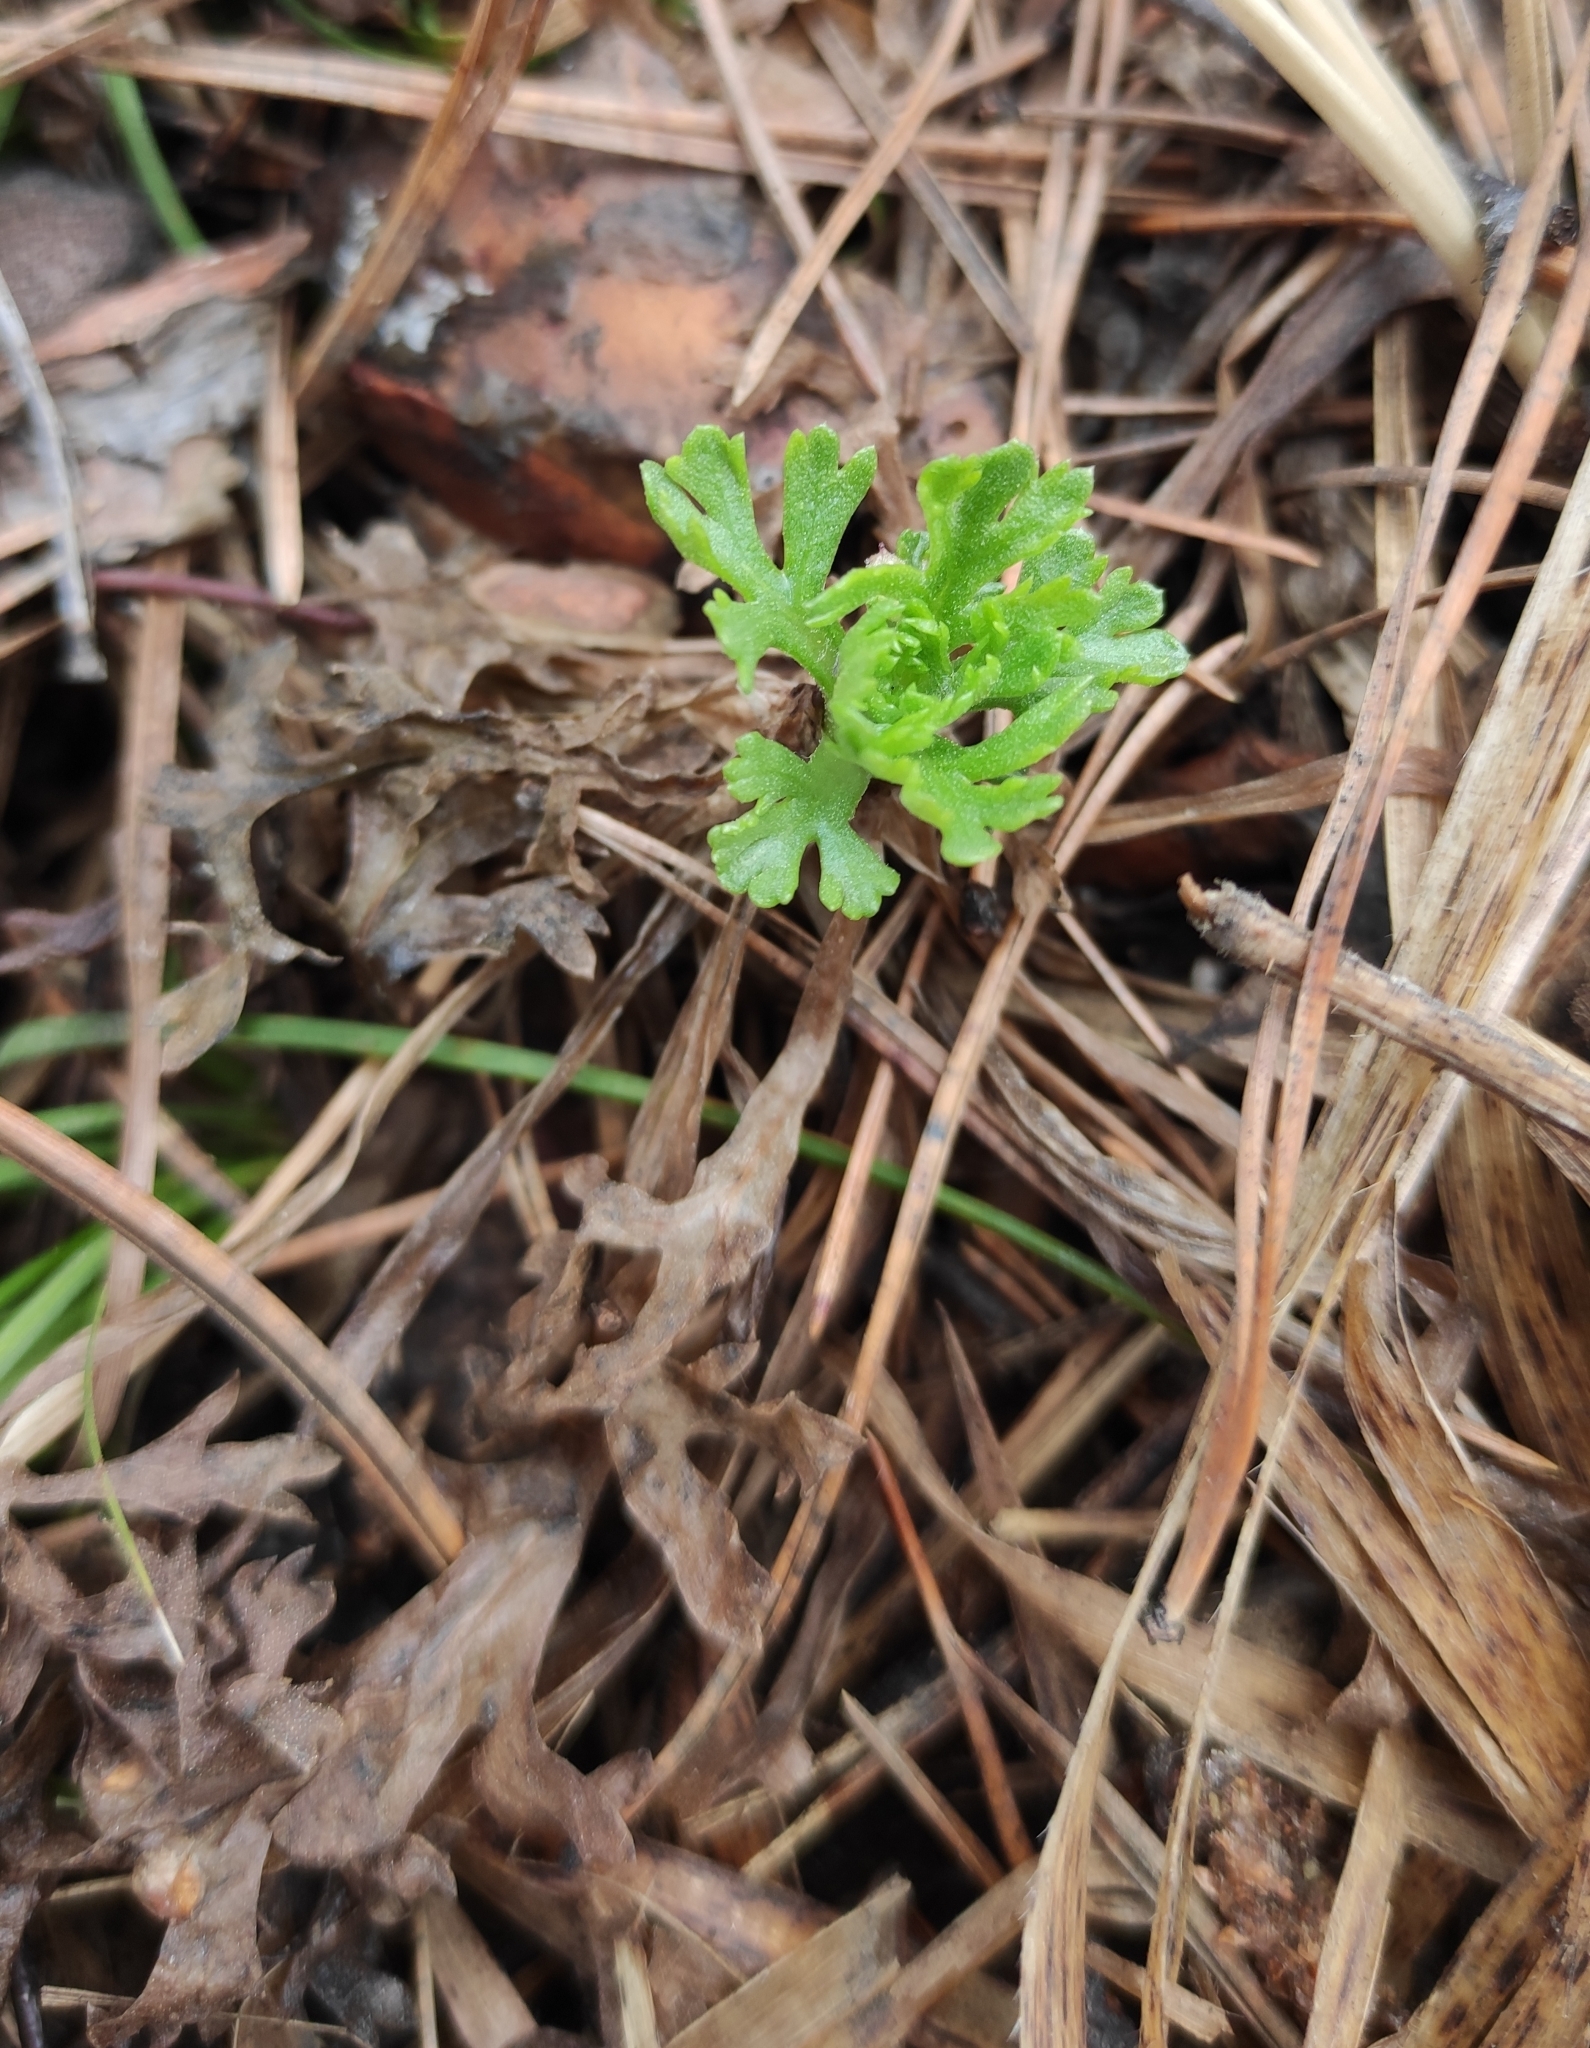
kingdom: Plantae
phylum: Tracheophyta
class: Magnoliopsida
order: Asterales
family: Asteraceae
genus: Chrysanthemum
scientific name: Chrysanthemum zawadzkii
